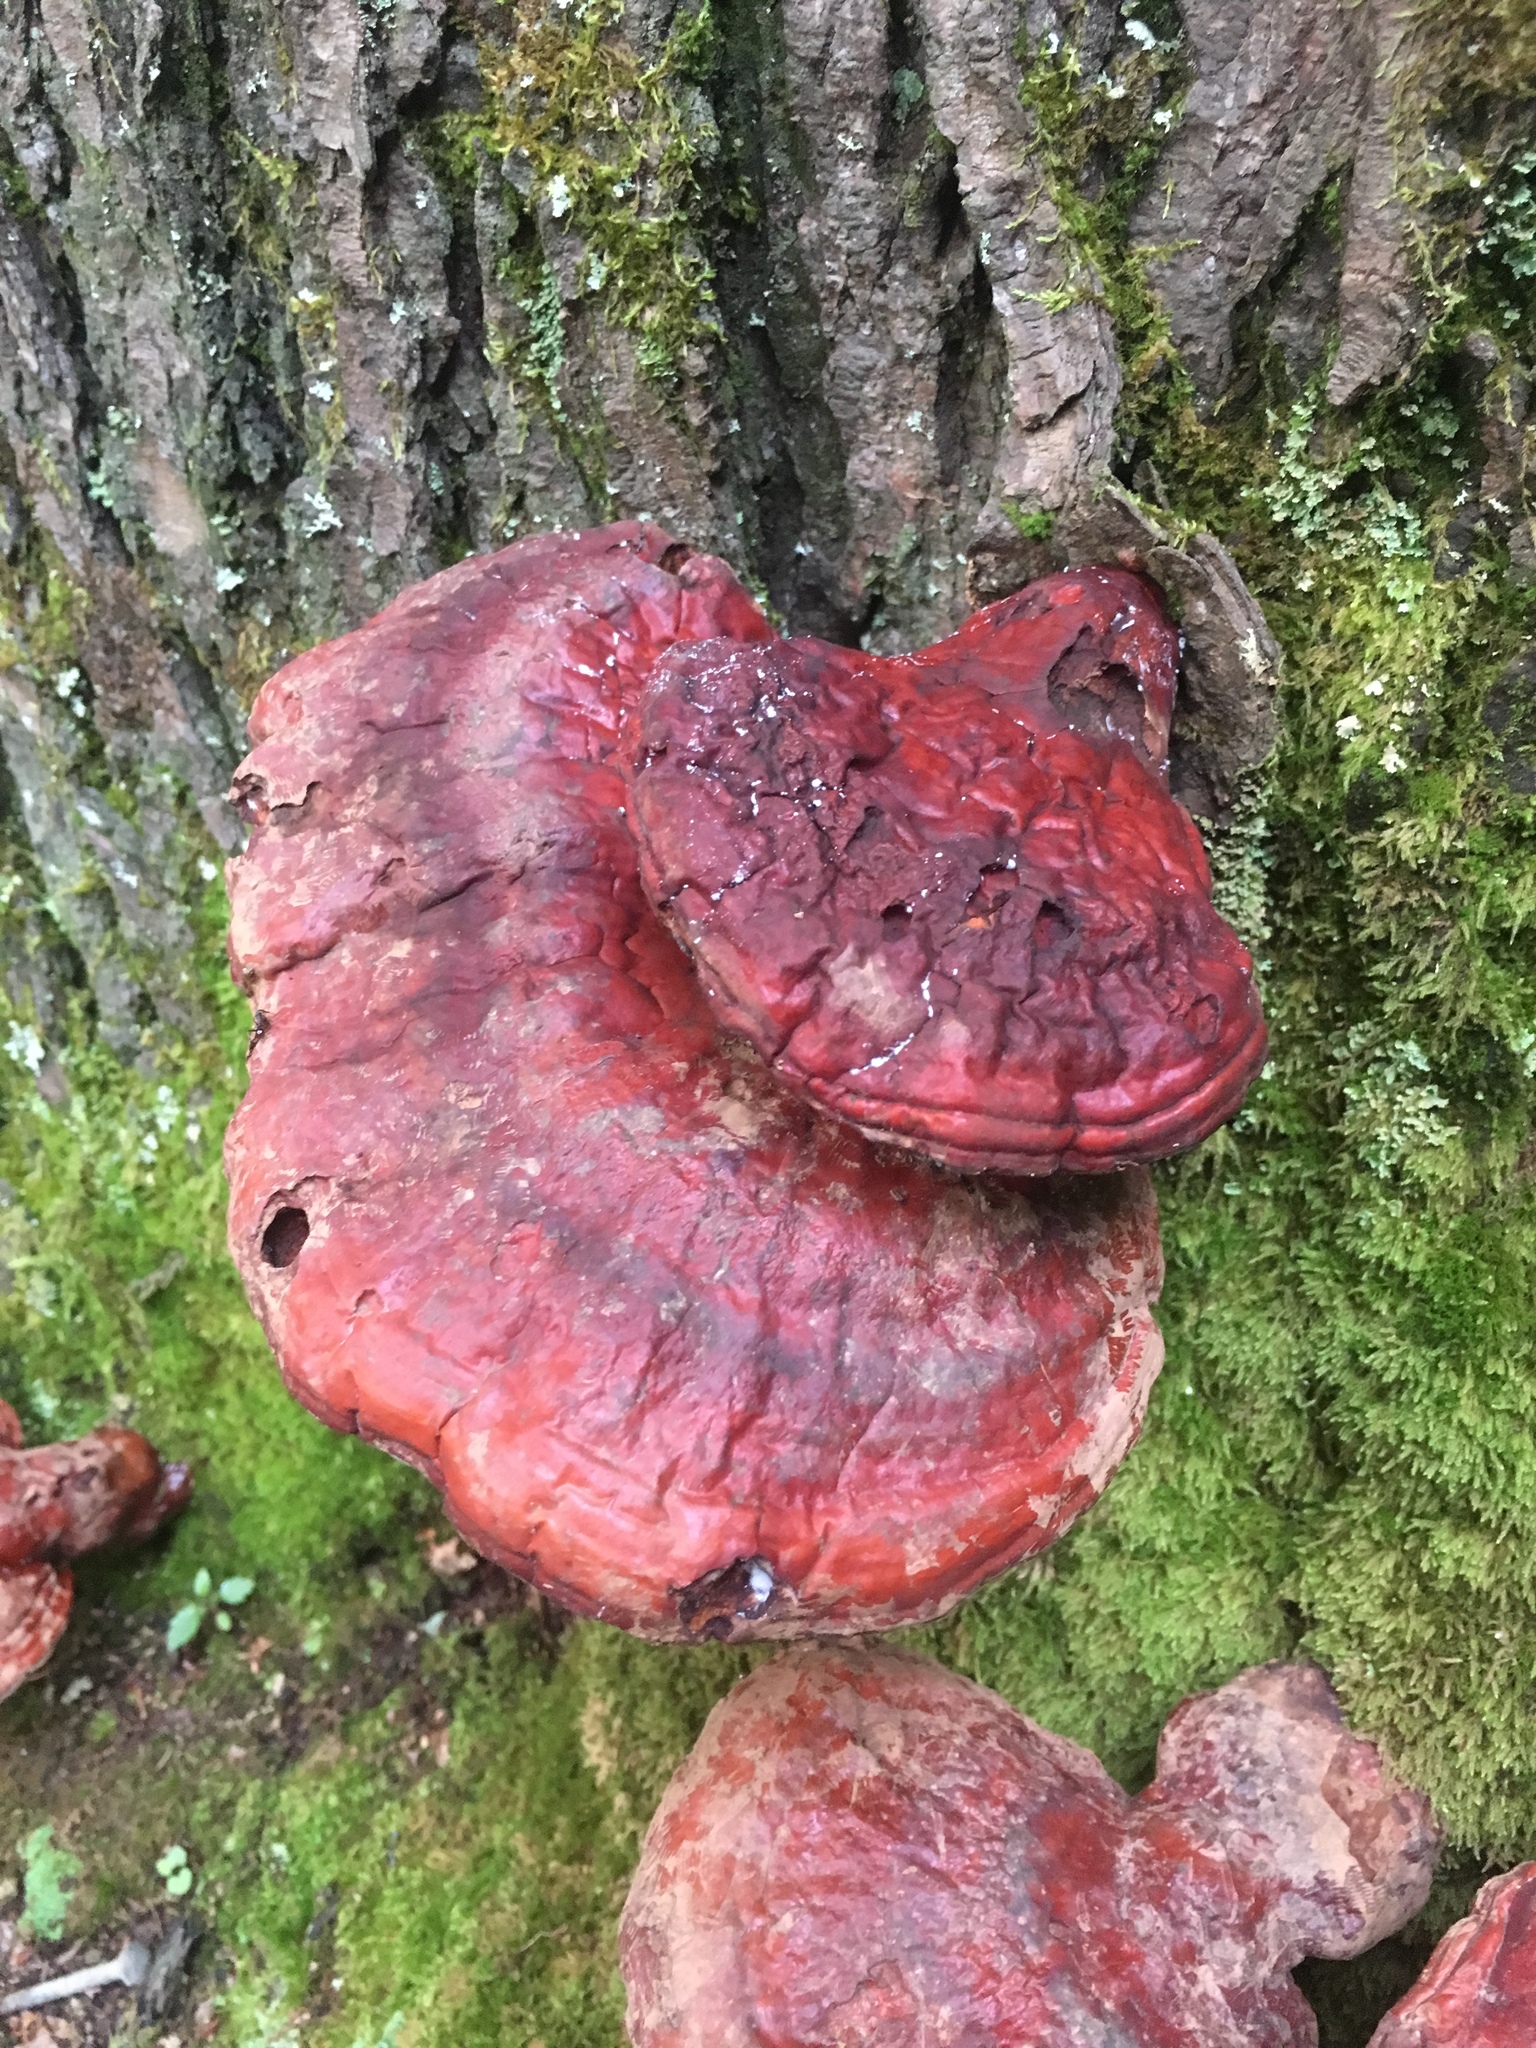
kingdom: Fungi
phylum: Basidiomycota
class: Agaricomycetes
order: Polyporales
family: Polyporaceae
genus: Ganoderma
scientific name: Ganoderma tsugae
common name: Hemlock varnish shelf
